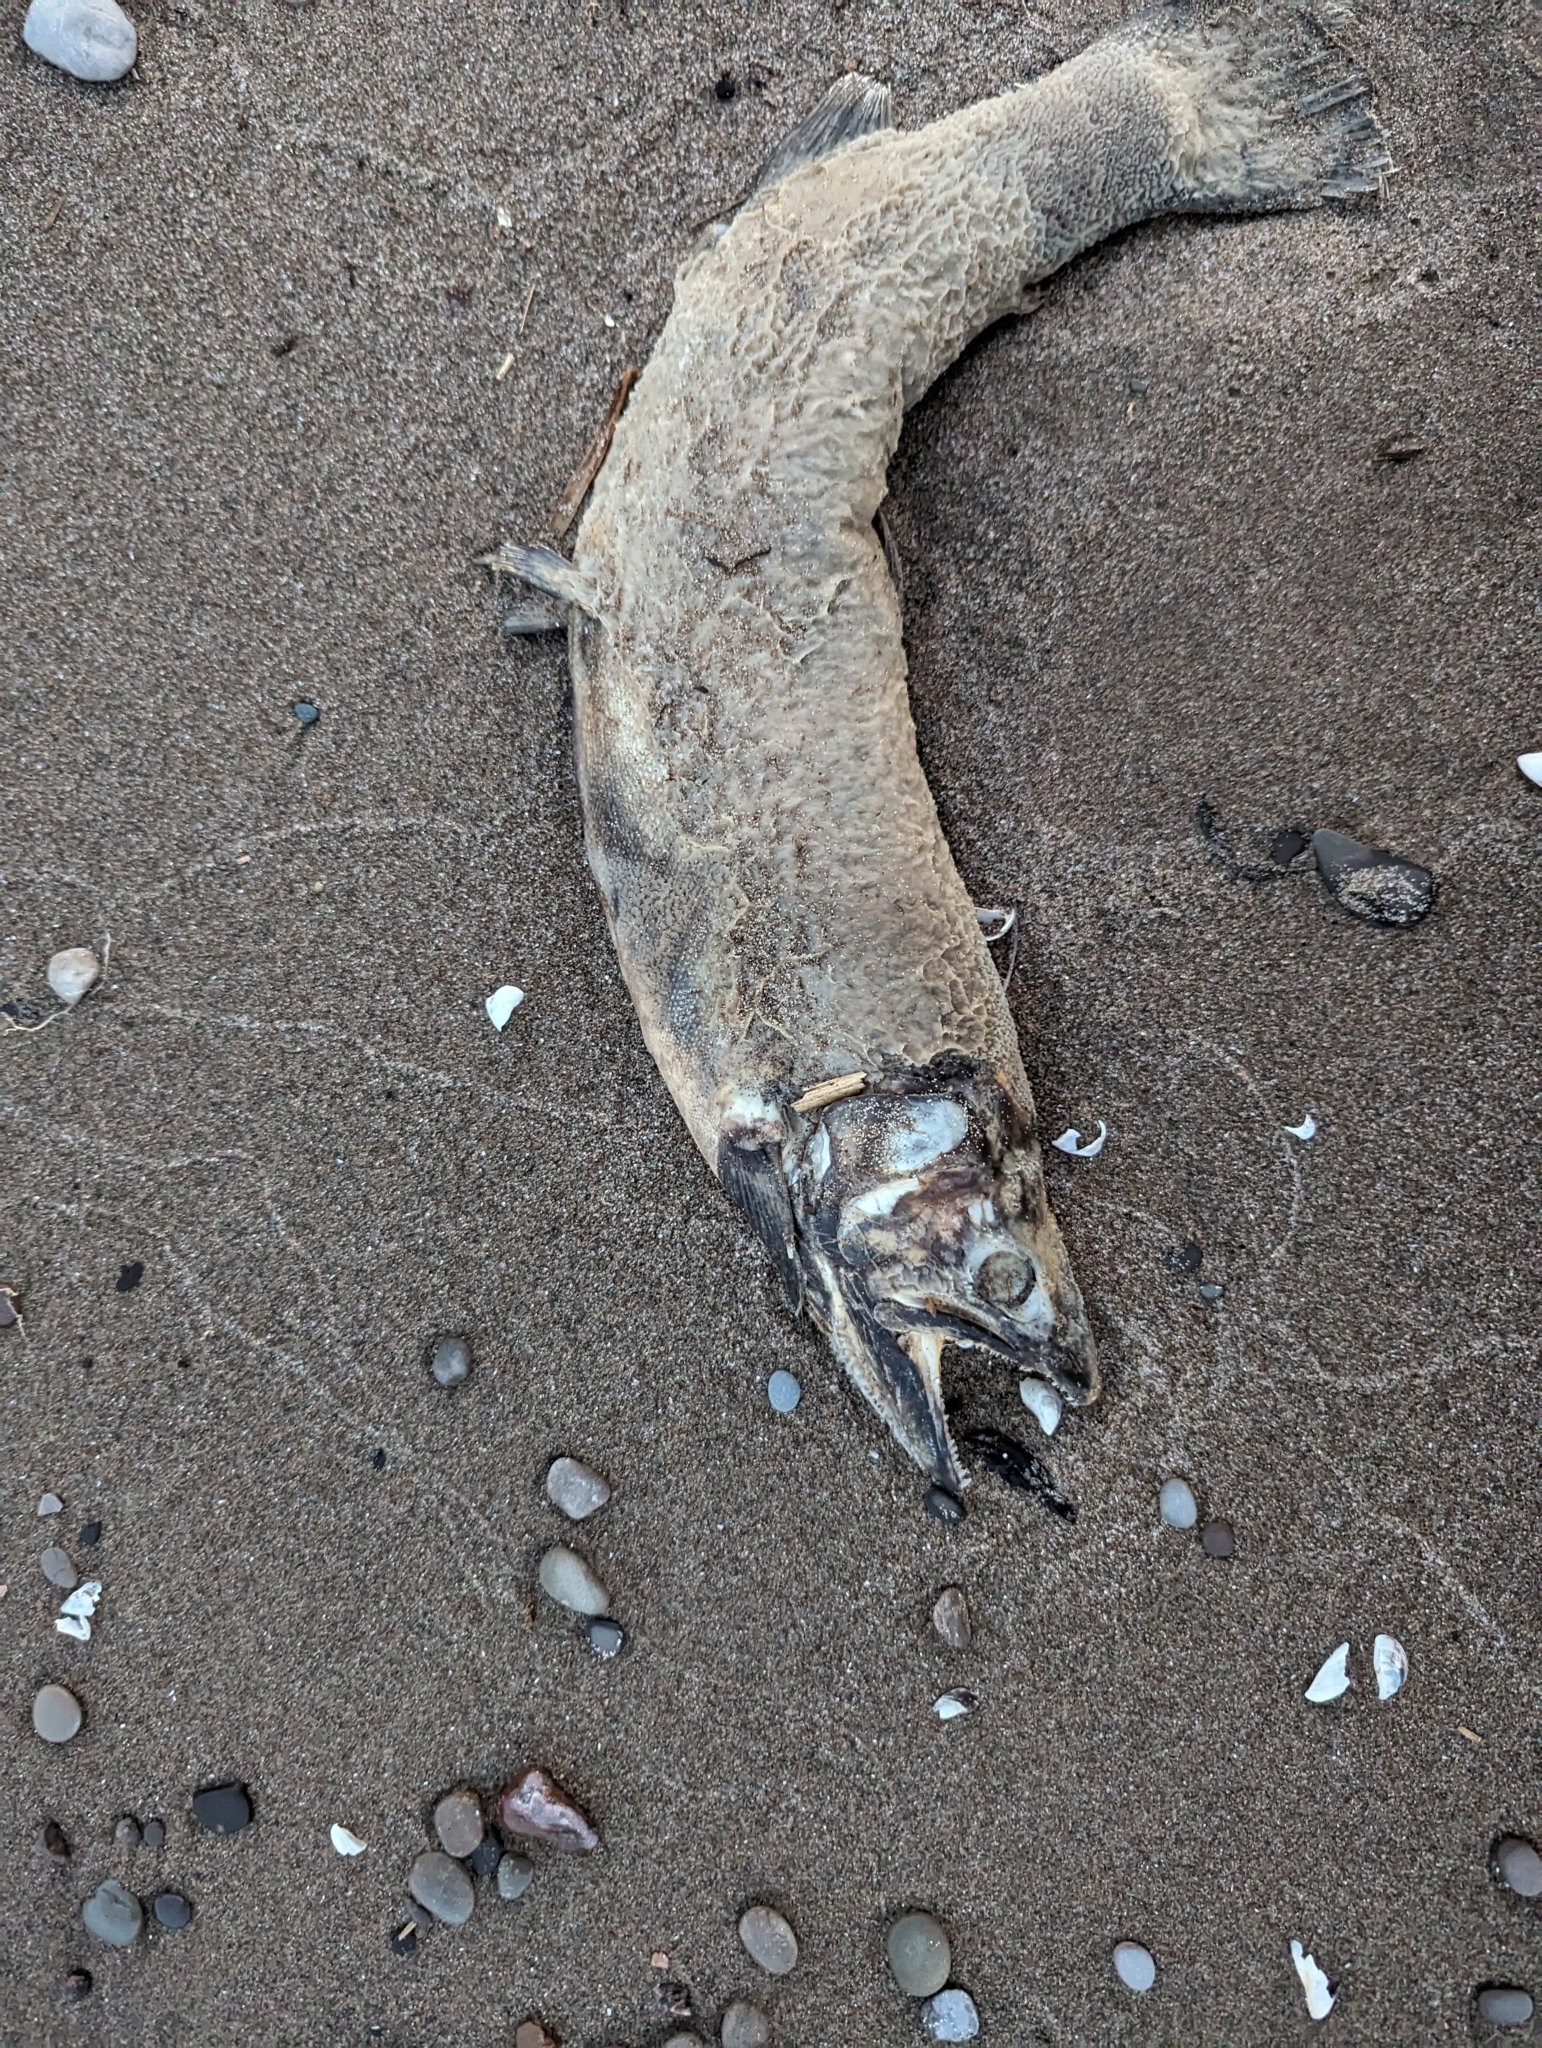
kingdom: Animalia
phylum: Chordata
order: Salmoniformes
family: Salmonidae
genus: Oncorhynchus
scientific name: Oncorhynchus mykiss
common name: Rainbow trout
